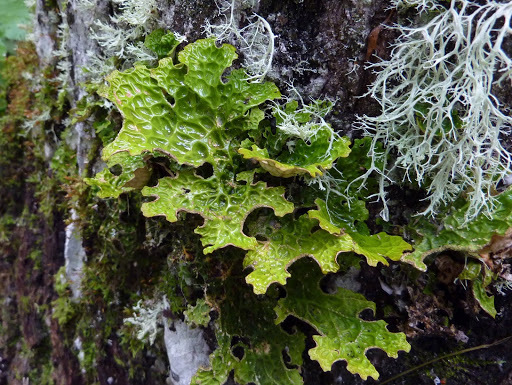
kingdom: Fungi
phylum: Ascomycota
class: Lecanoromycetes
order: Peltigerales
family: Lobariaceae
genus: Lobaria
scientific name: Lobaria pulmonaria
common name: Lungwort
